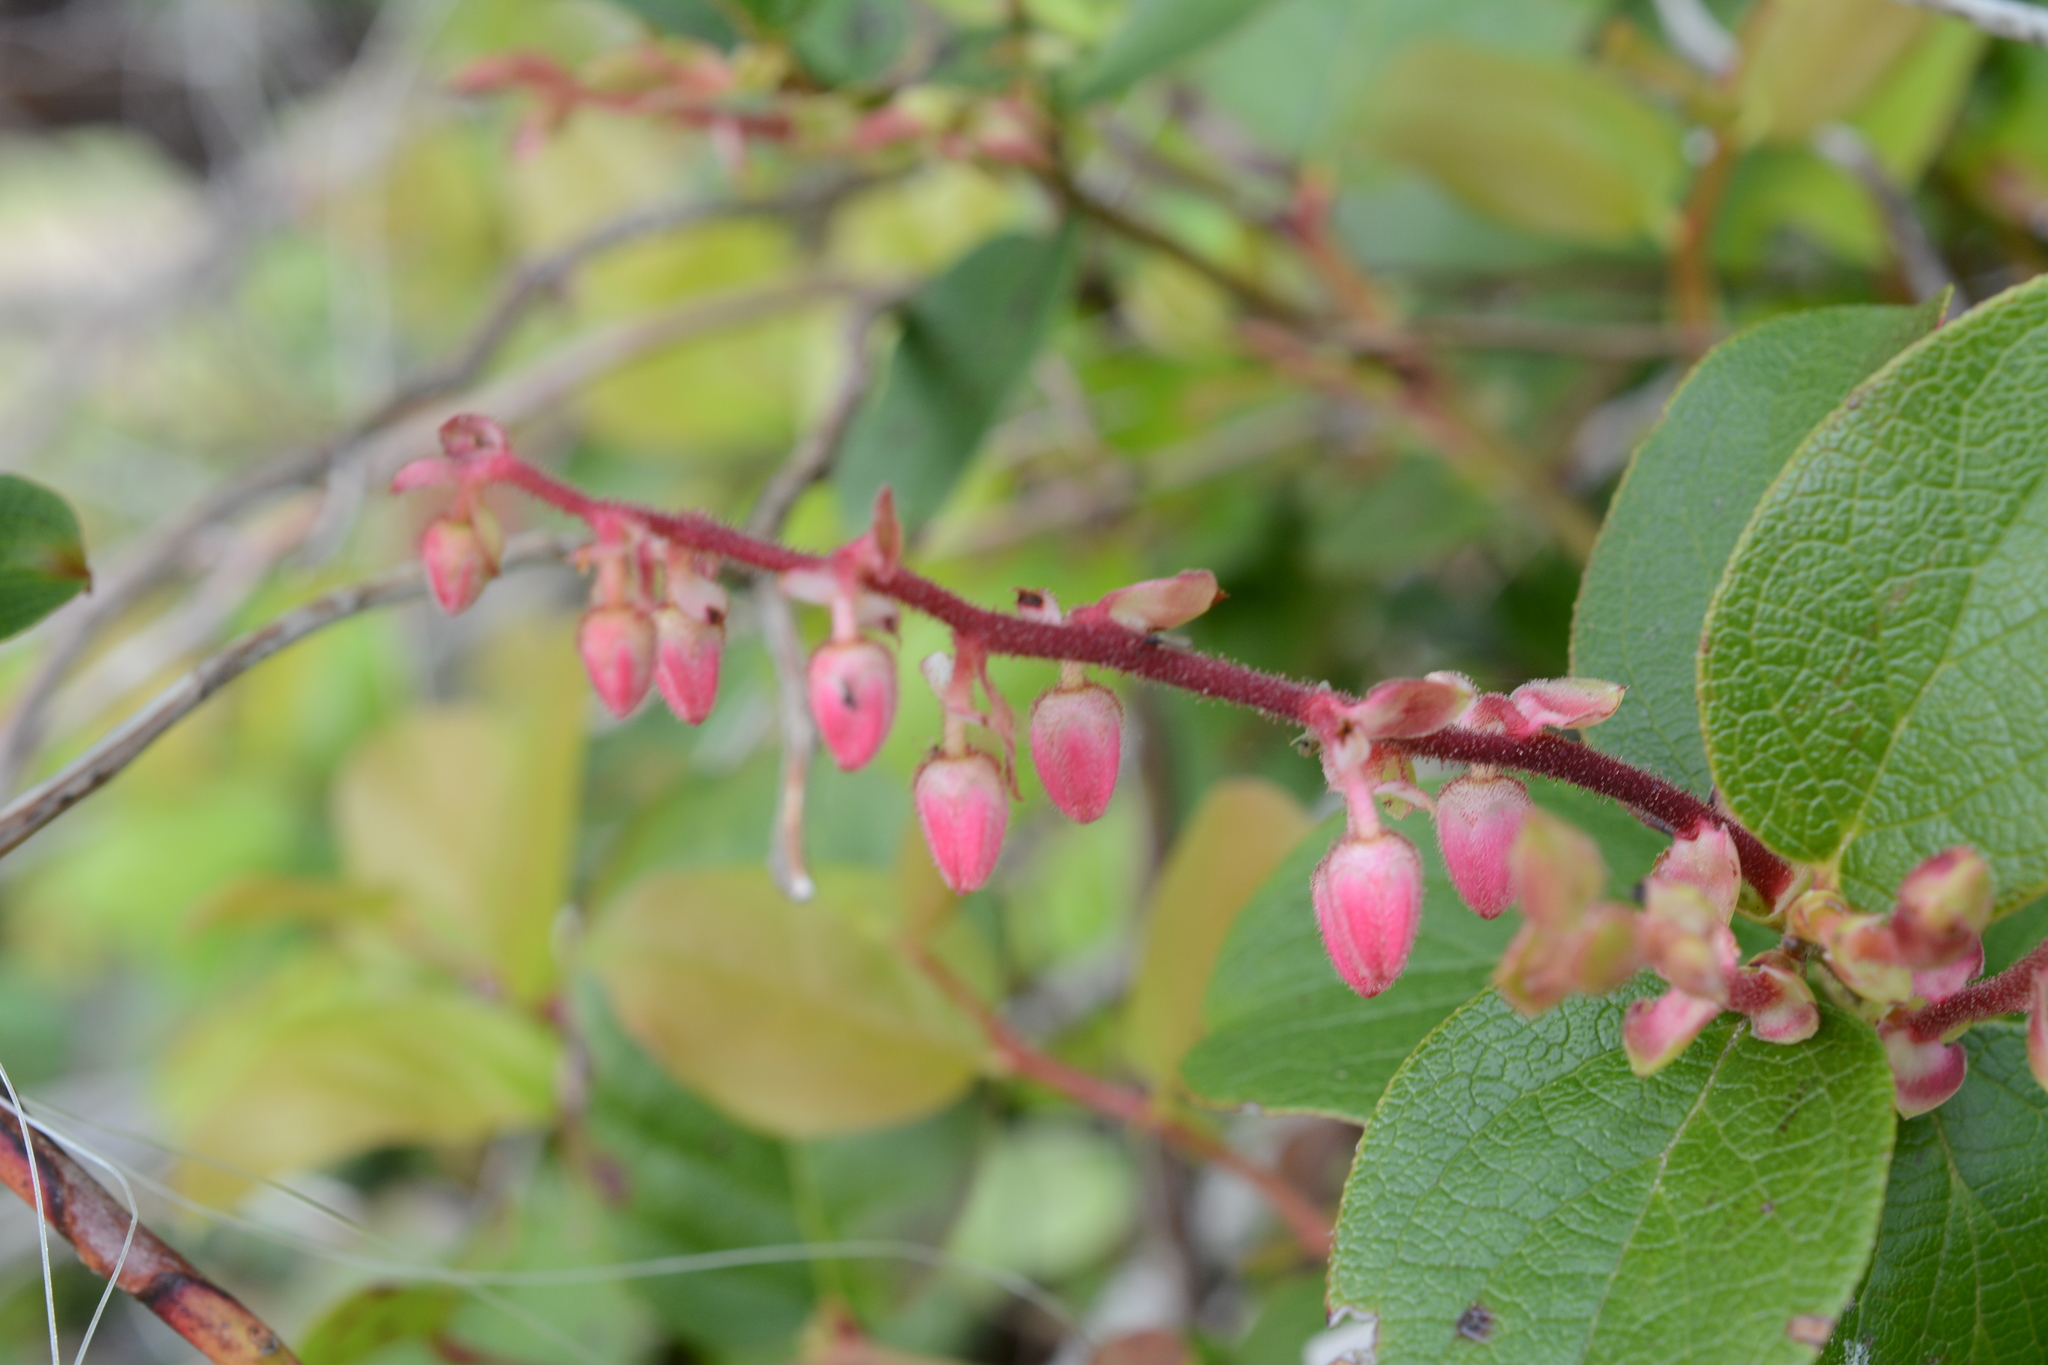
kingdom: Plantae
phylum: Tracheophyta
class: Magnoliopsida
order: Ericales
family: Ericaceae
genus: Gaultheria
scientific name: Gaultheria shallon
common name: Shallon
